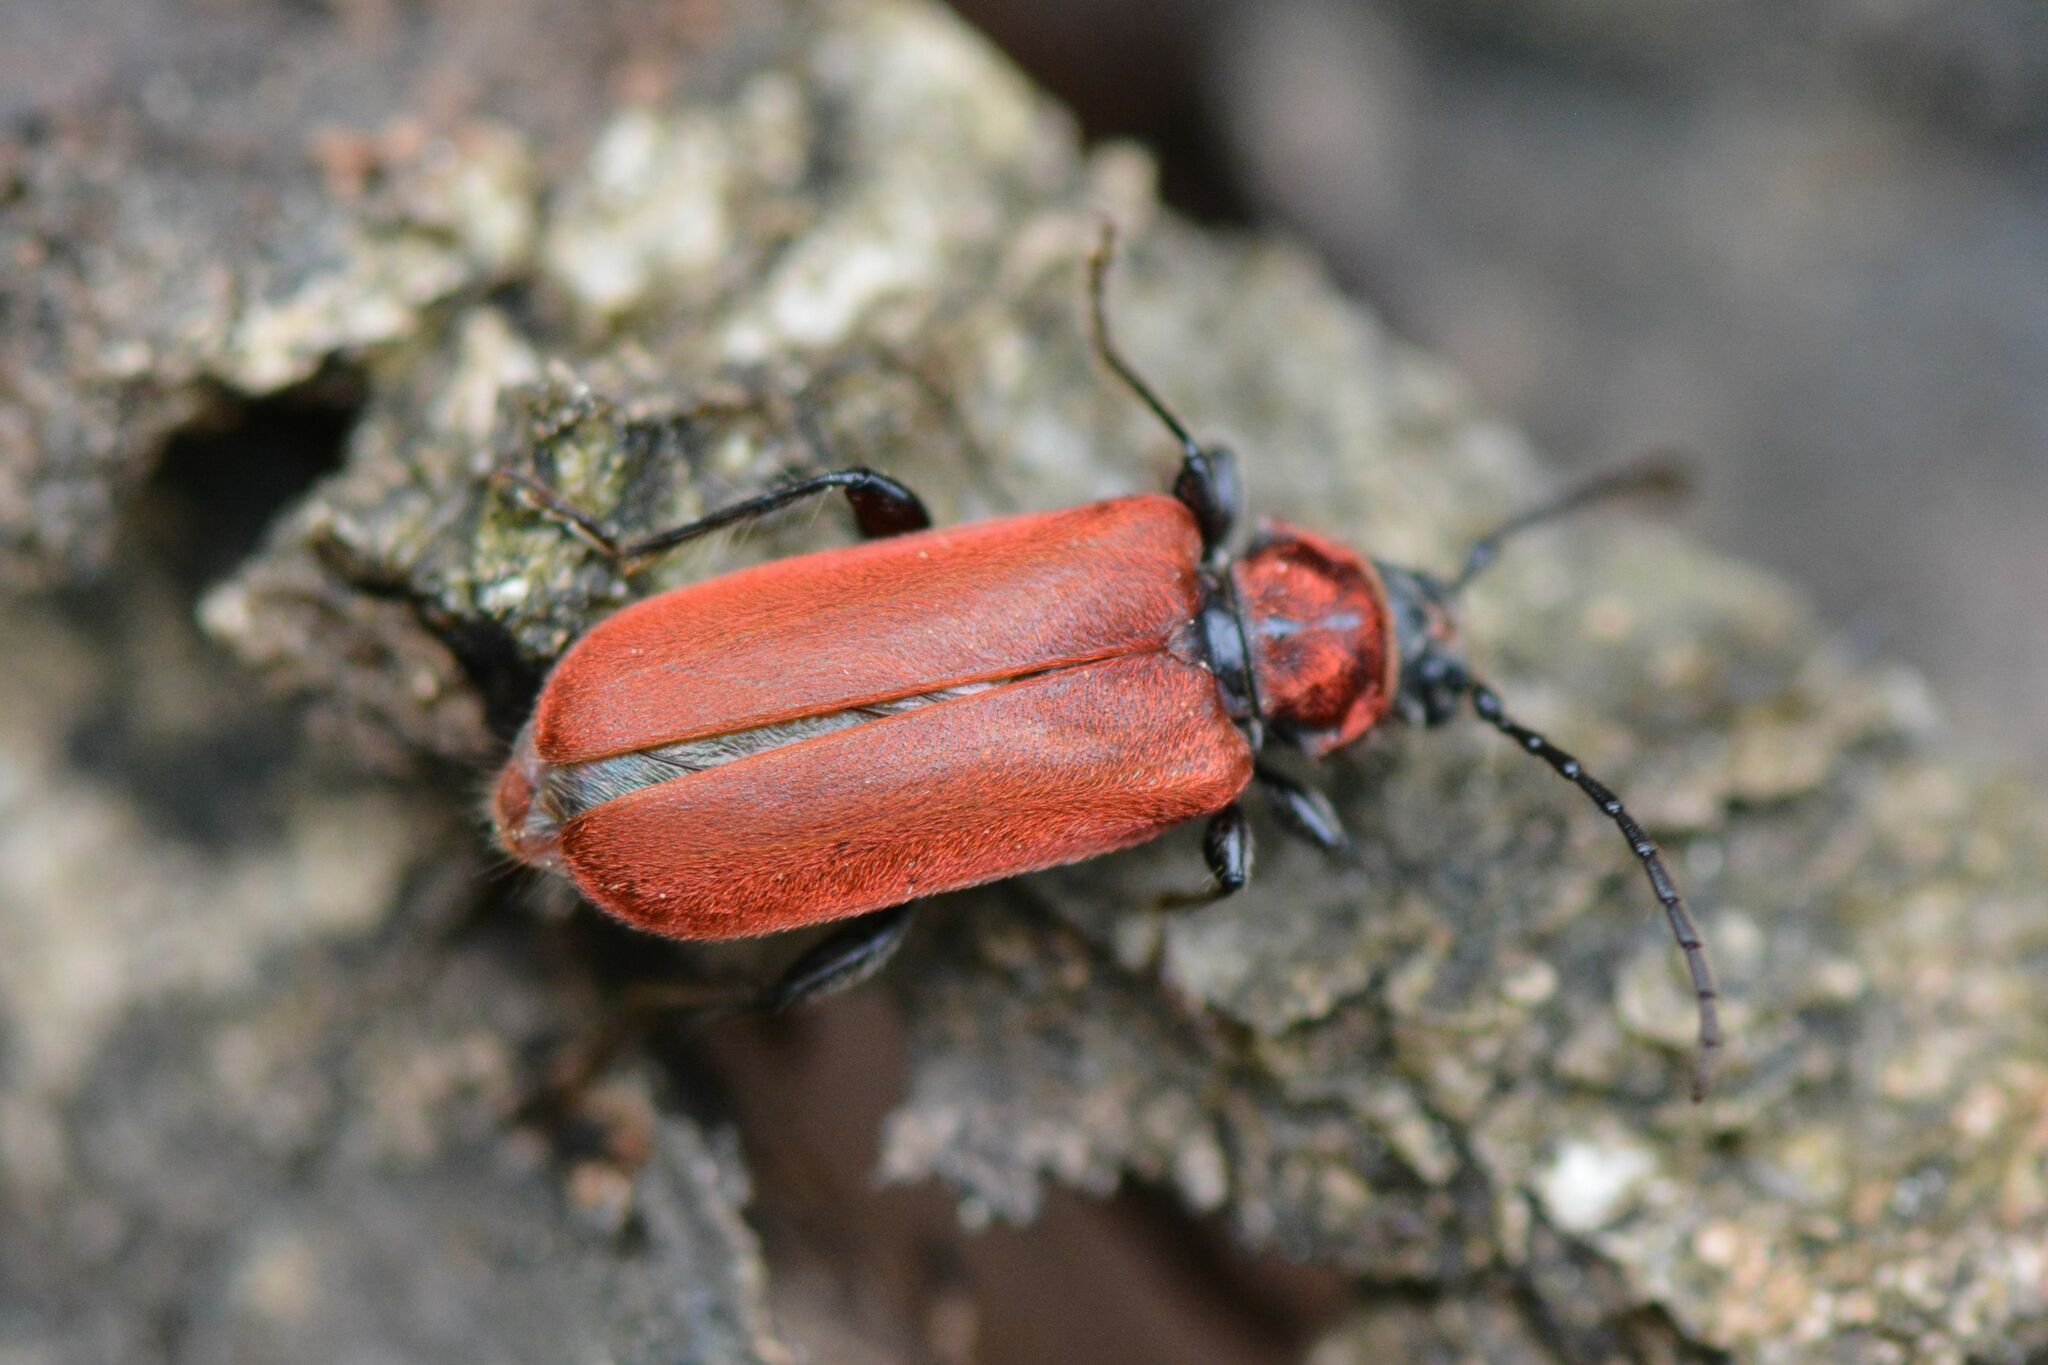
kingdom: Animalia
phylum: Arthropoda
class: Insecta
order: Coleoptera
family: Cerambycidae
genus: Pyrrhidium
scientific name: Pyrrhidium sanguineum
